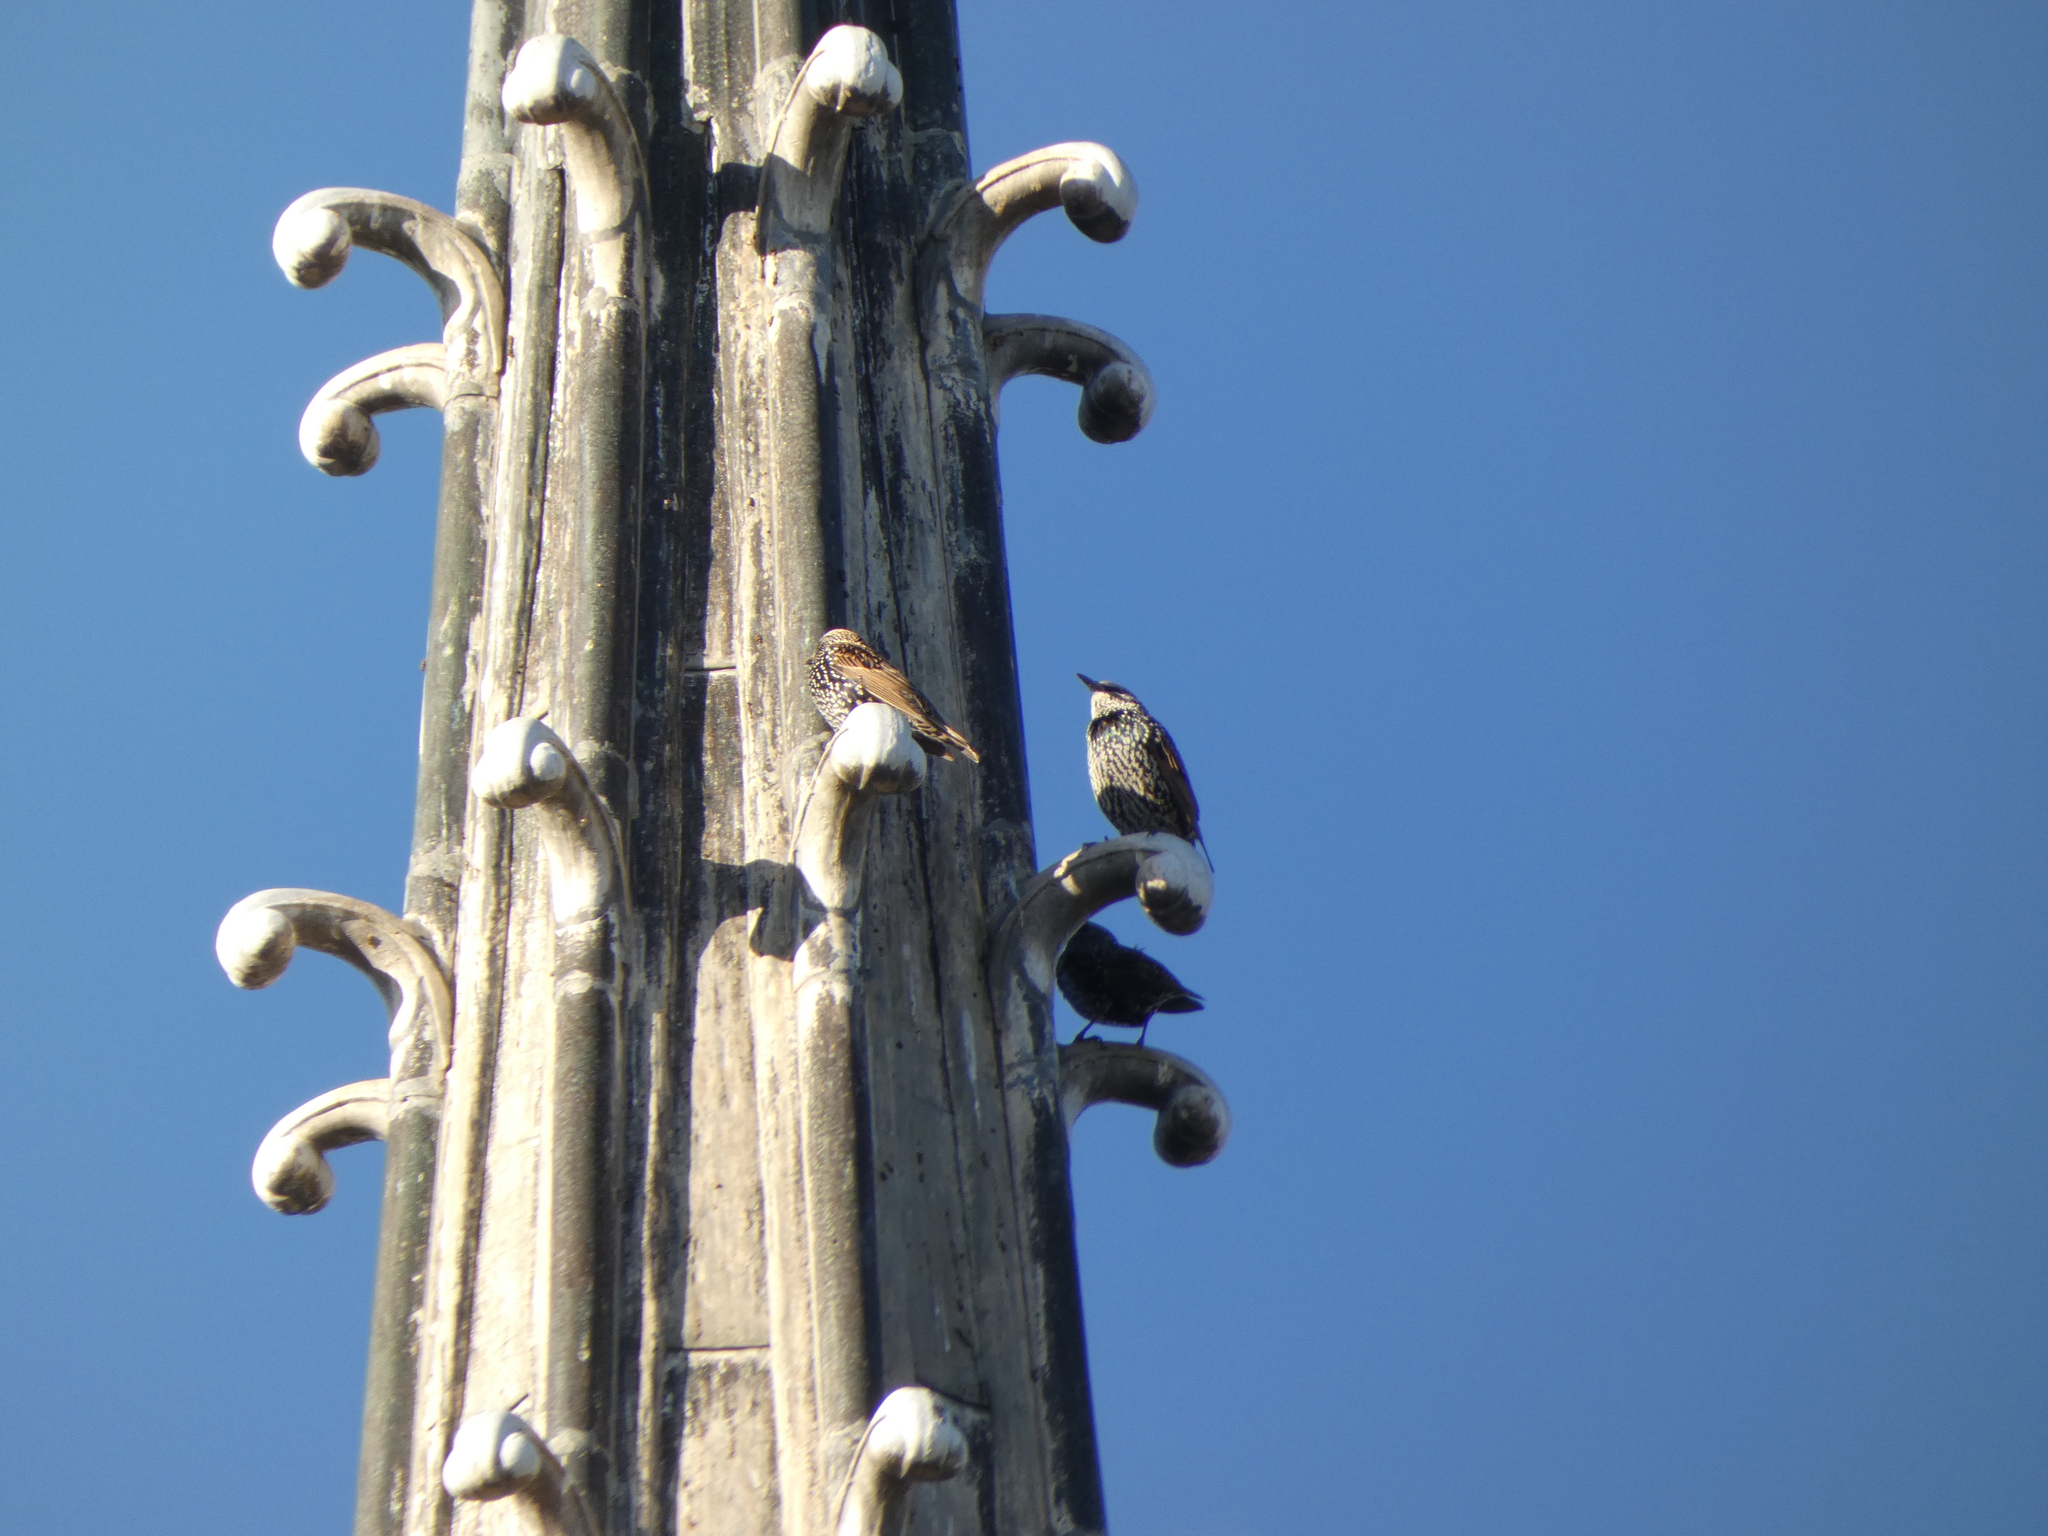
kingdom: Animalia
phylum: Chordata
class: Aves
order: Passeriformes
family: Sturnidae
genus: Sturnus
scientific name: Sturnus vulgaris
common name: Common starling
